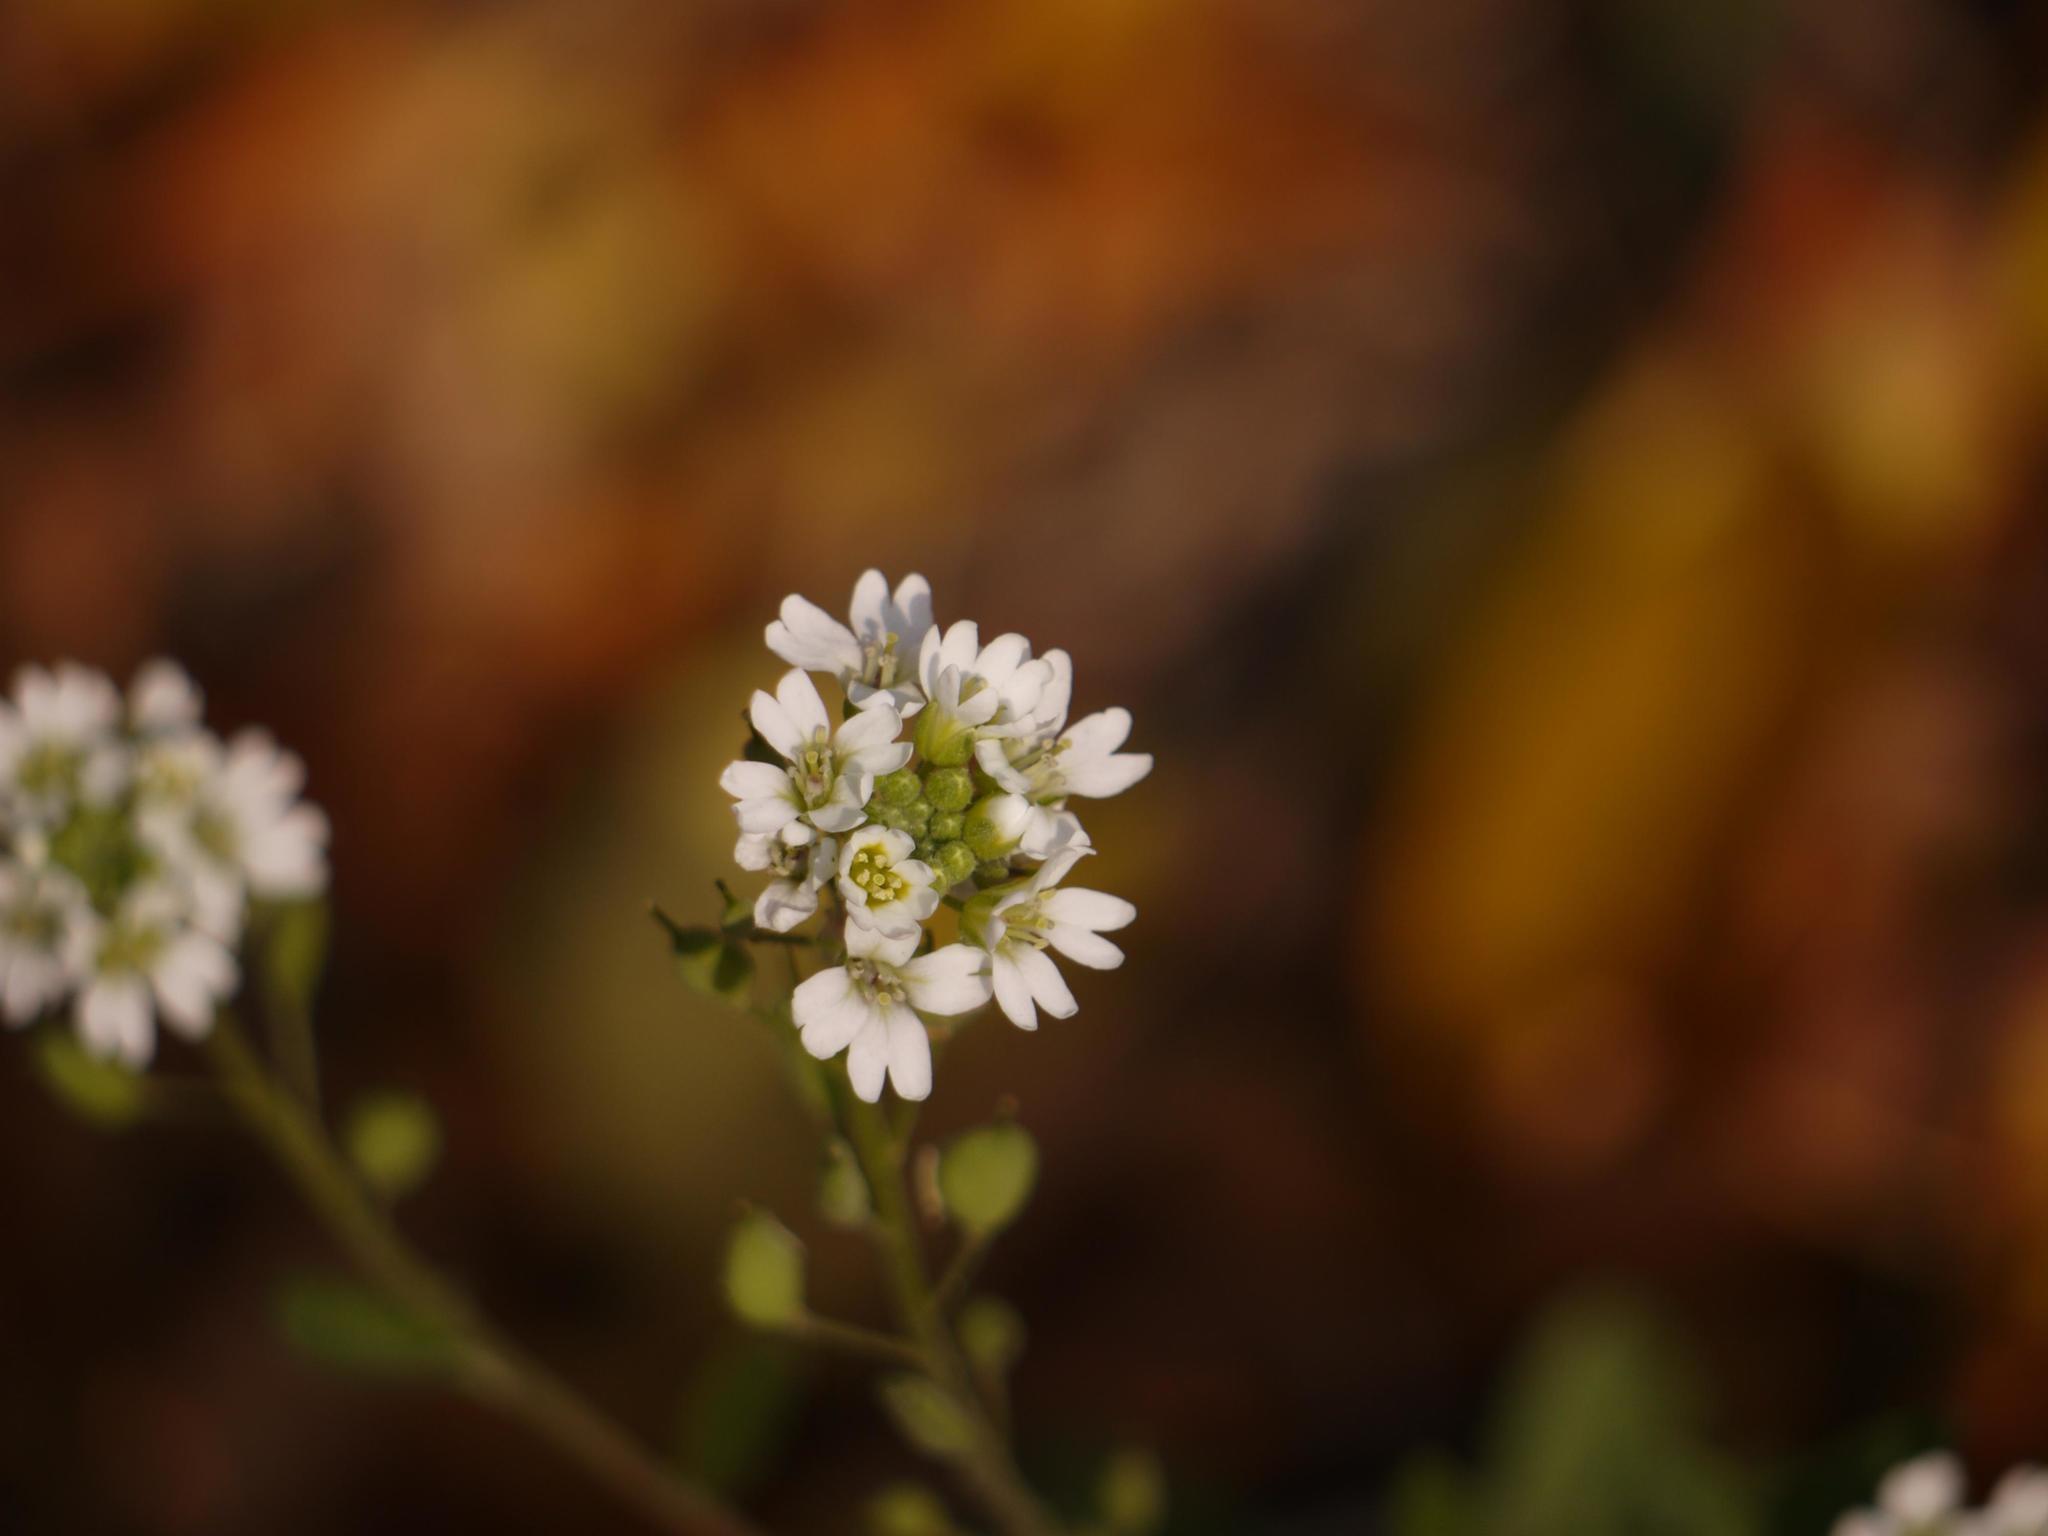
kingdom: Plantae
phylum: Tracheophyta
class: Magnoliopsida
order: Brassicales
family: Brassicaceae
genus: Berteroa
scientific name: Berteroa incana
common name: Hoary alison
